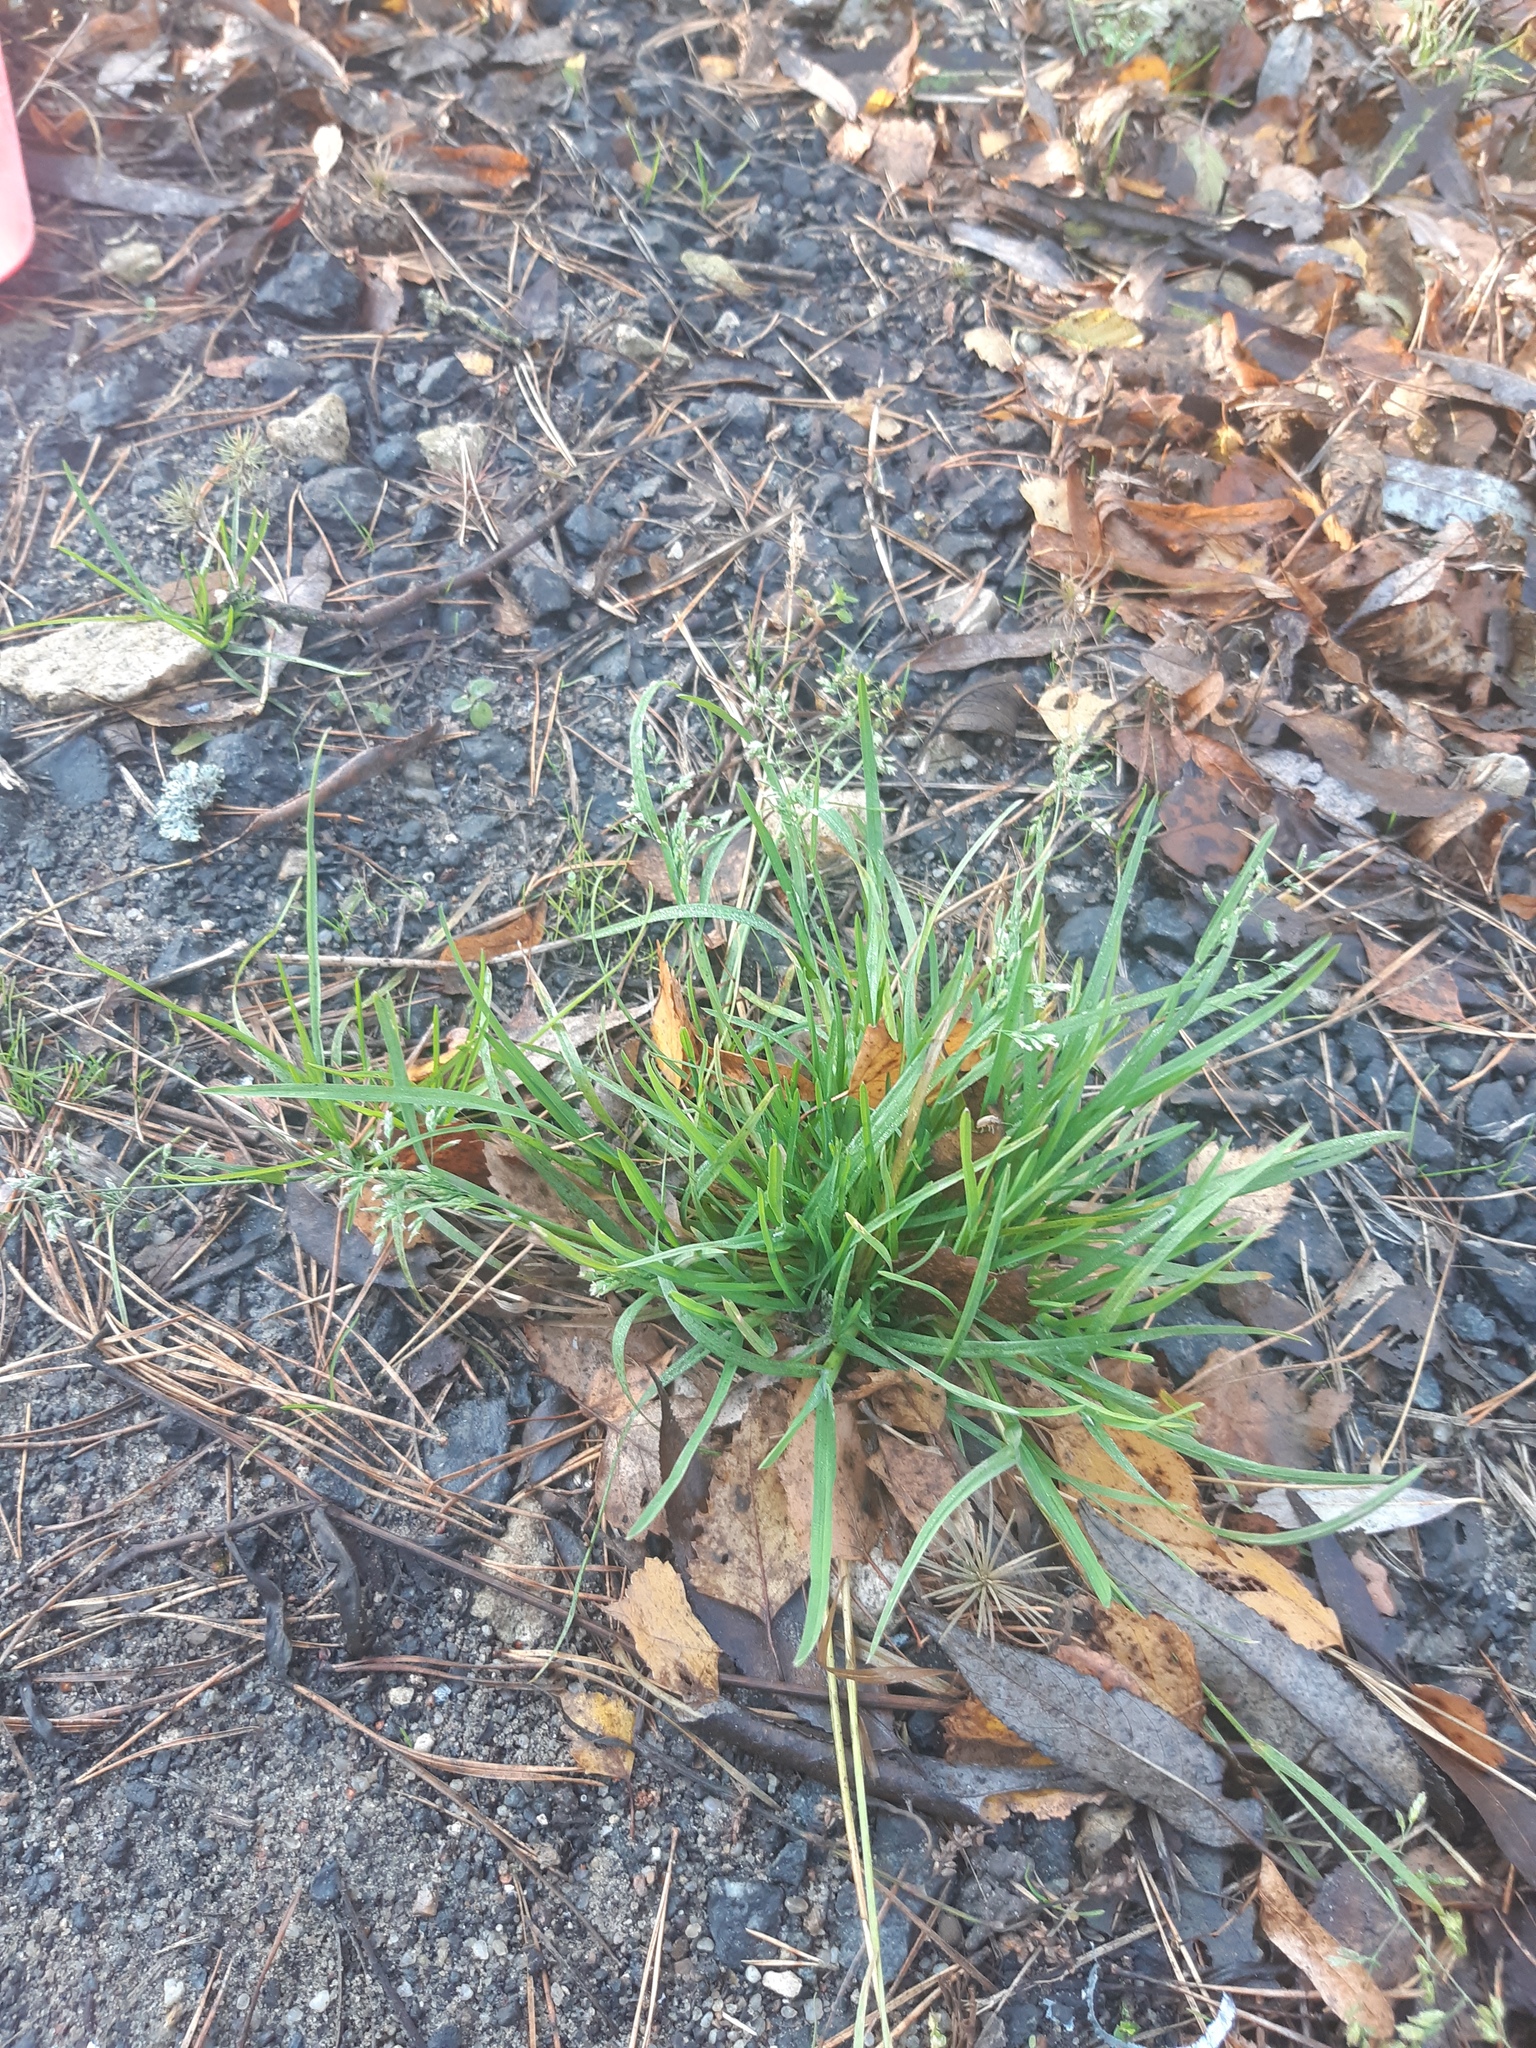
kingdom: Plantae
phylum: Tracheophyta
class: Liliopsida
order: Poales
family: Poaceae
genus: Poa
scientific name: Poa annua
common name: Annual bluegrass
